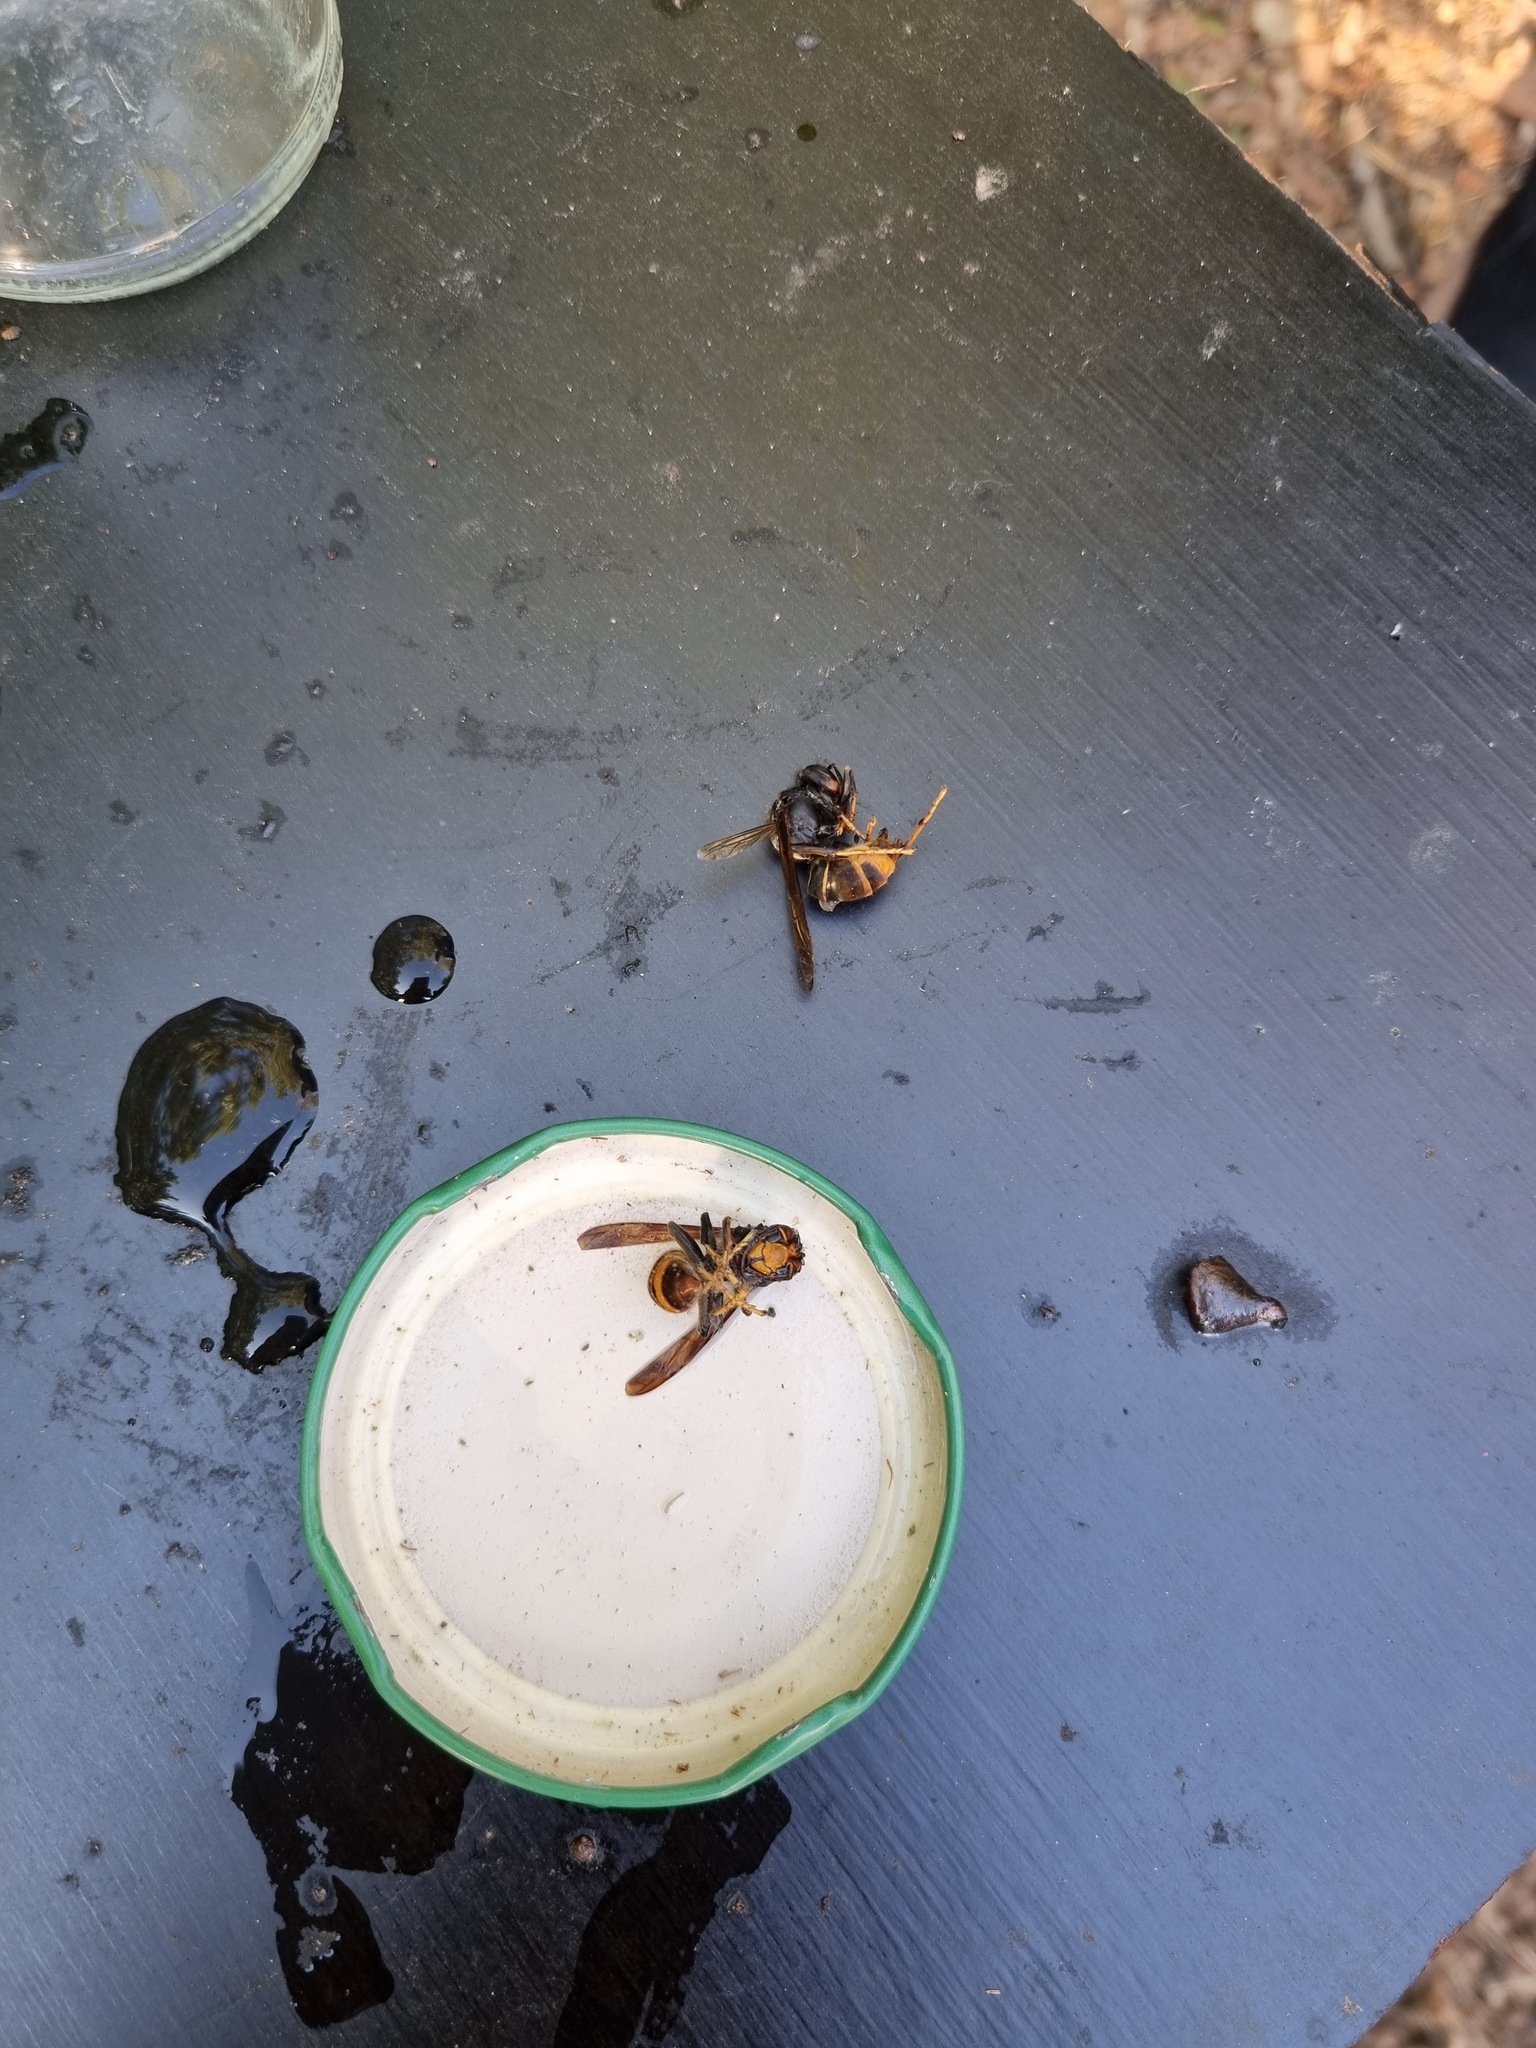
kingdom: Animalia
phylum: Arthropoda
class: Insecta
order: Hymenoptera
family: Vespidae
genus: Vespa
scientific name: Vespa velutina
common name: Asian hornet
